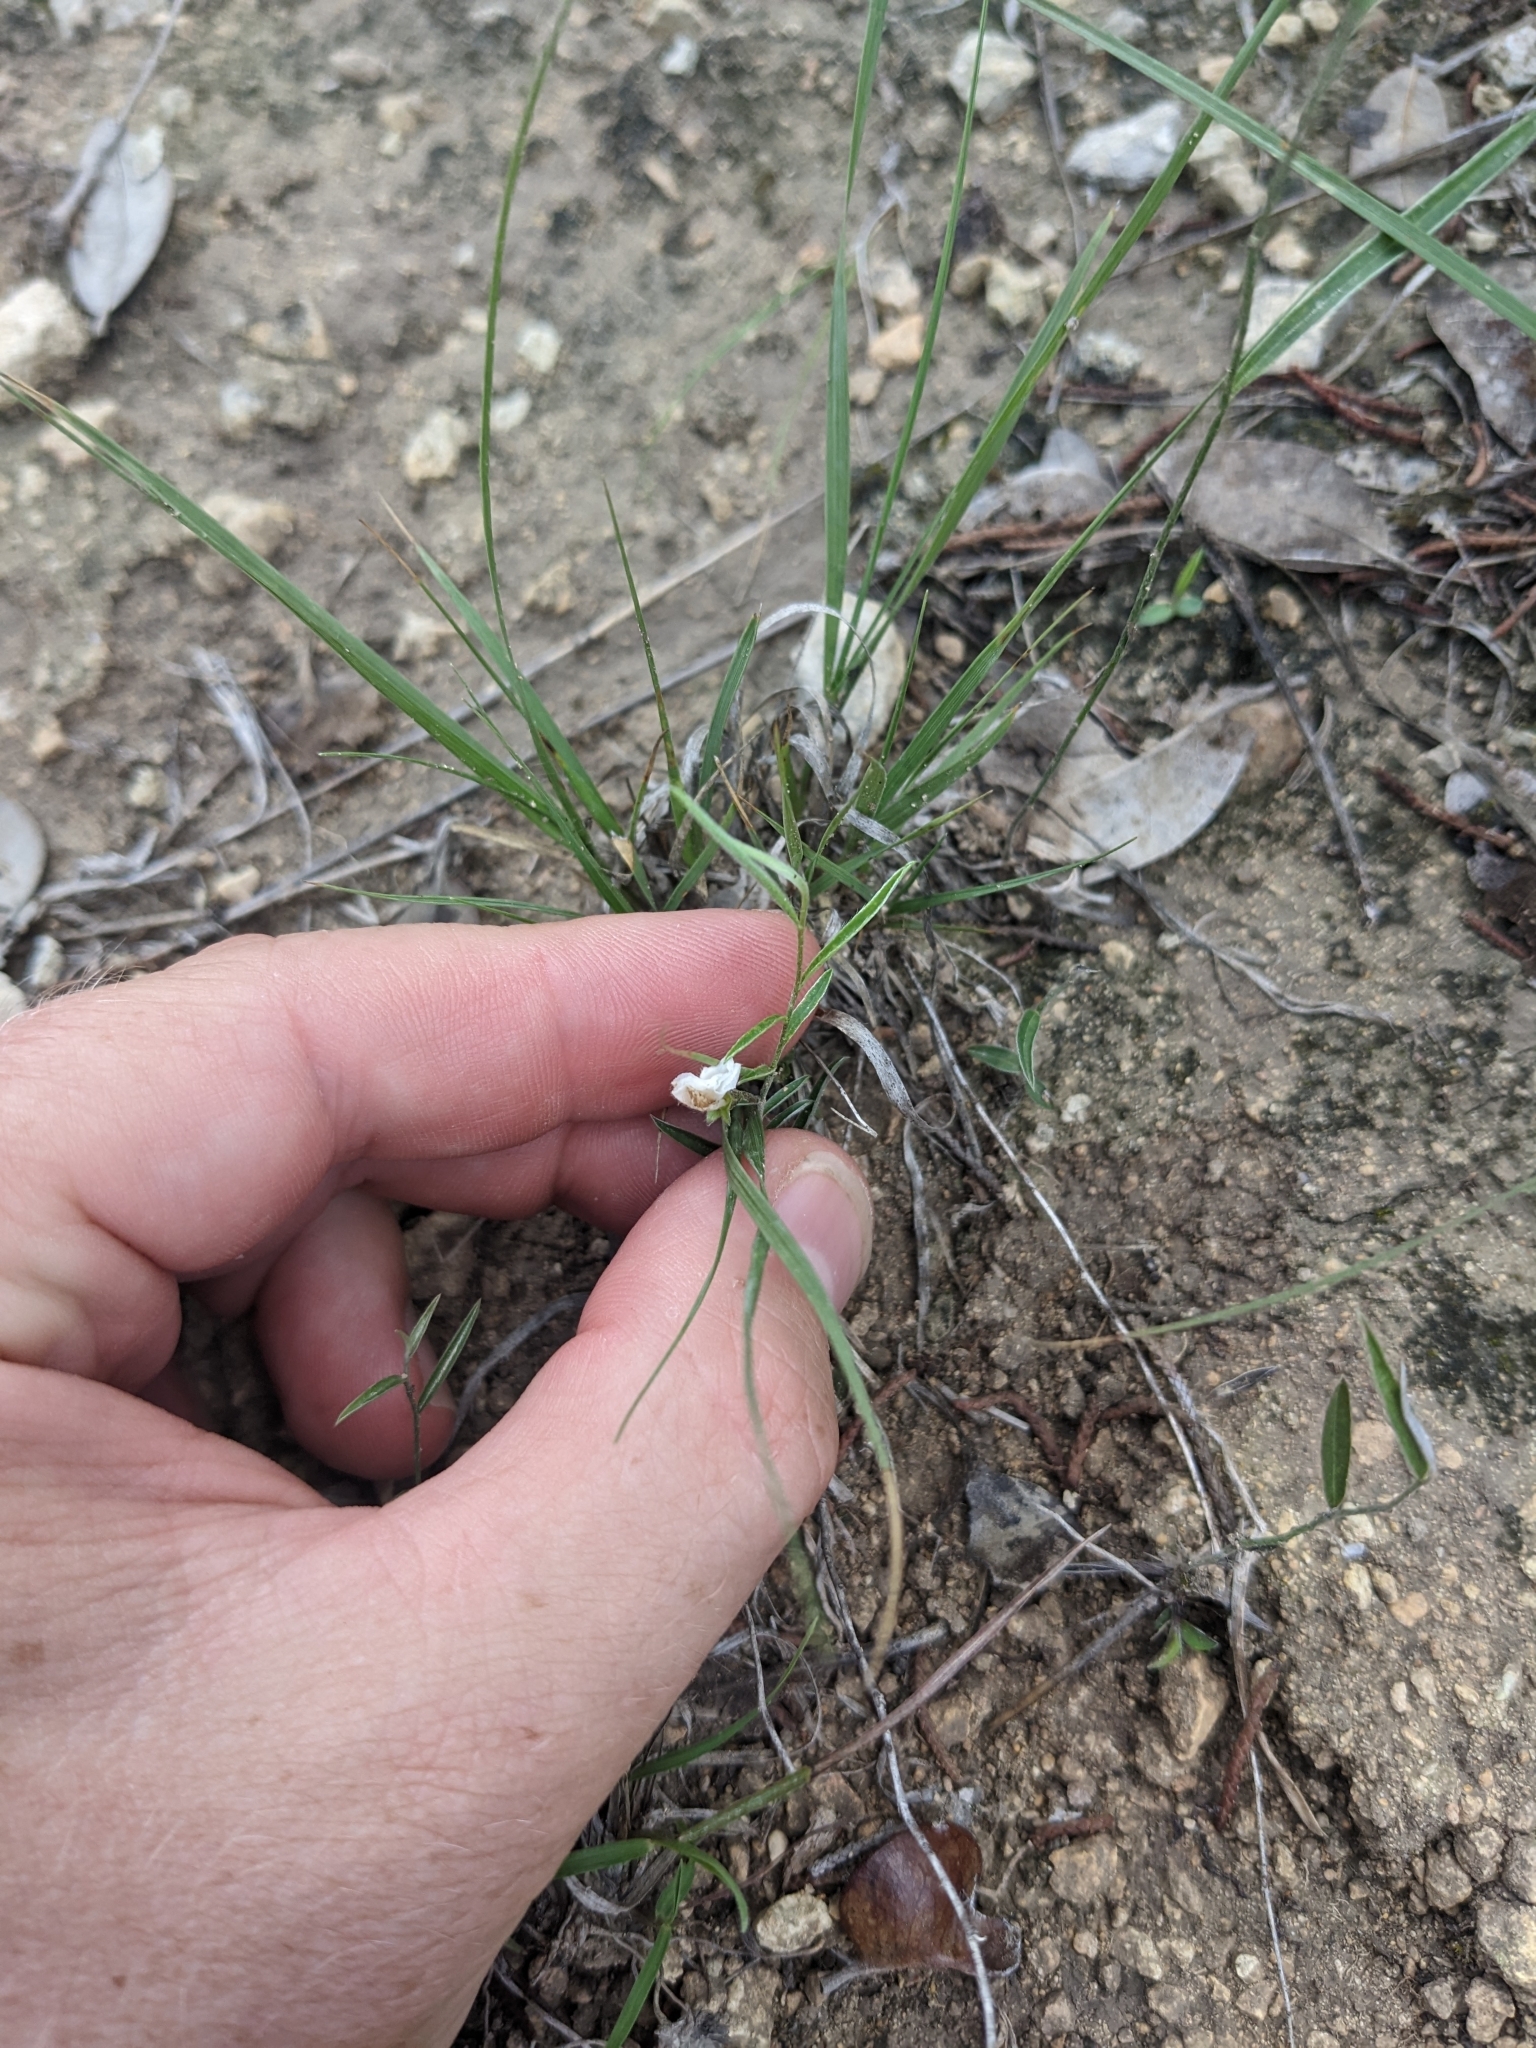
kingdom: Plantae
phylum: Tracheophyta
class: Magnoliopsida
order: Solanales
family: Convolvulaceae
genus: Evolvulus
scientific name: Evolvulus sericeus
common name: Blue dots
